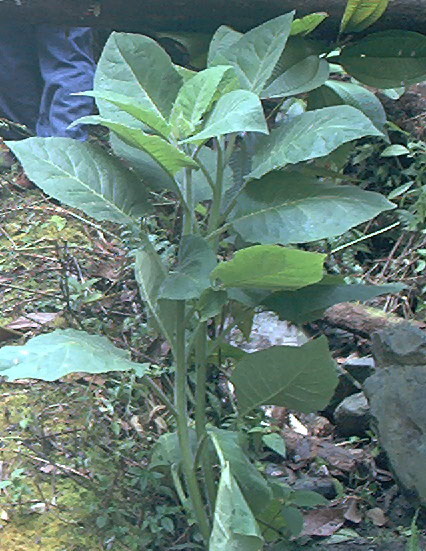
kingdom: Plantae
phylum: Tracheophyta
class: Magnoliopsida
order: Solanales
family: Solanaceae
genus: Nicotiana
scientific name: Nicotiana glauca
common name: Tree tobacco
